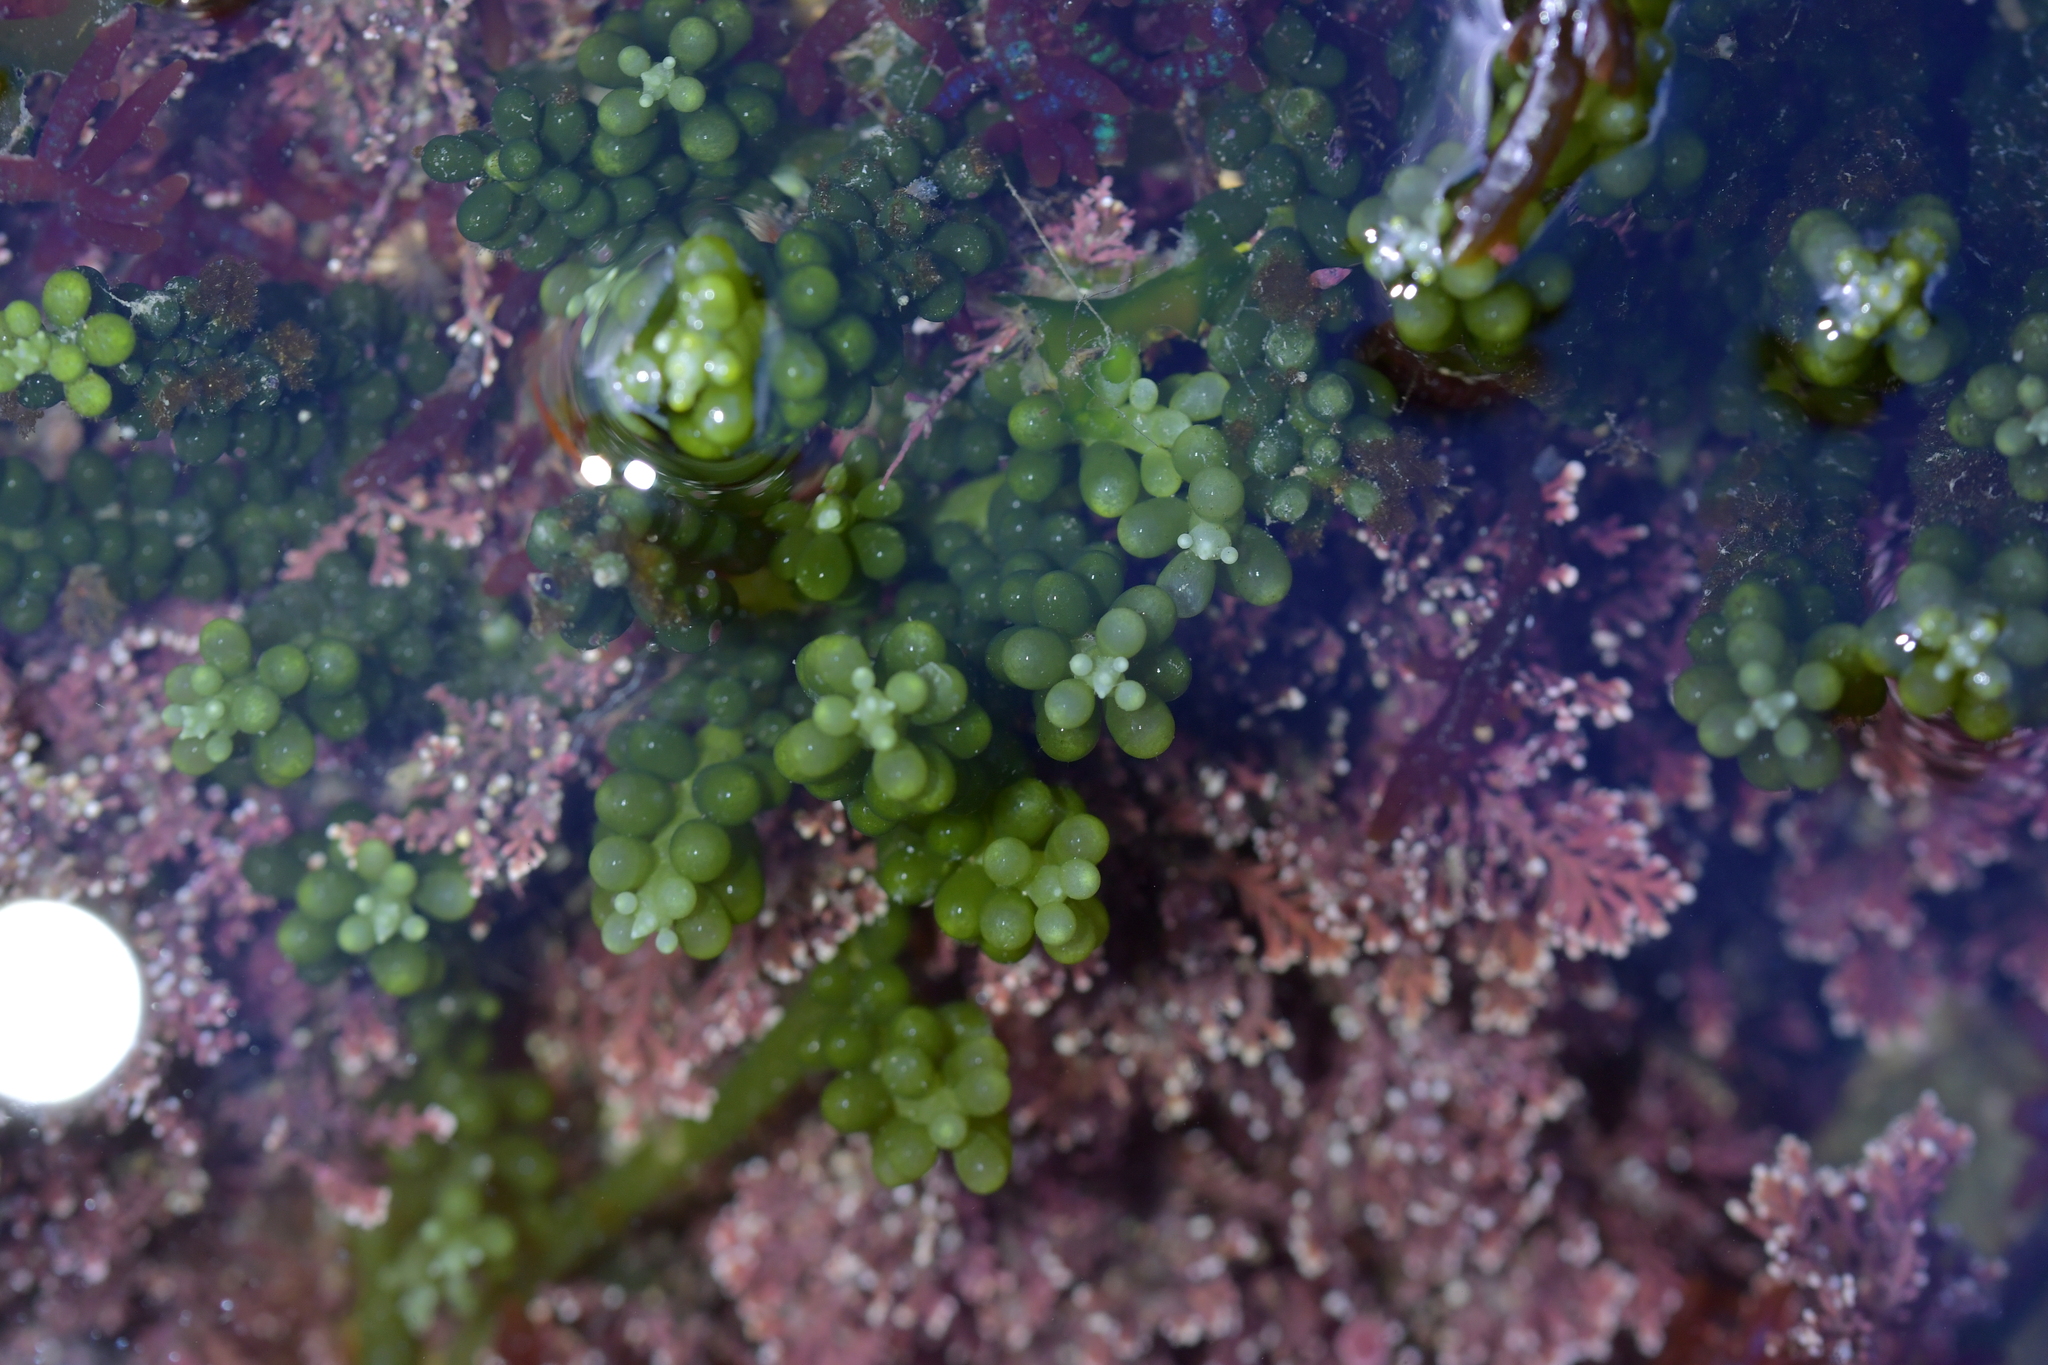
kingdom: Plantae
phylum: Chlorophyta
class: Ulvophyceae
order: Bryopsidales
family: Caulerpaceae
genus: Caulerpa
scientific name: Caulerpa geminata
